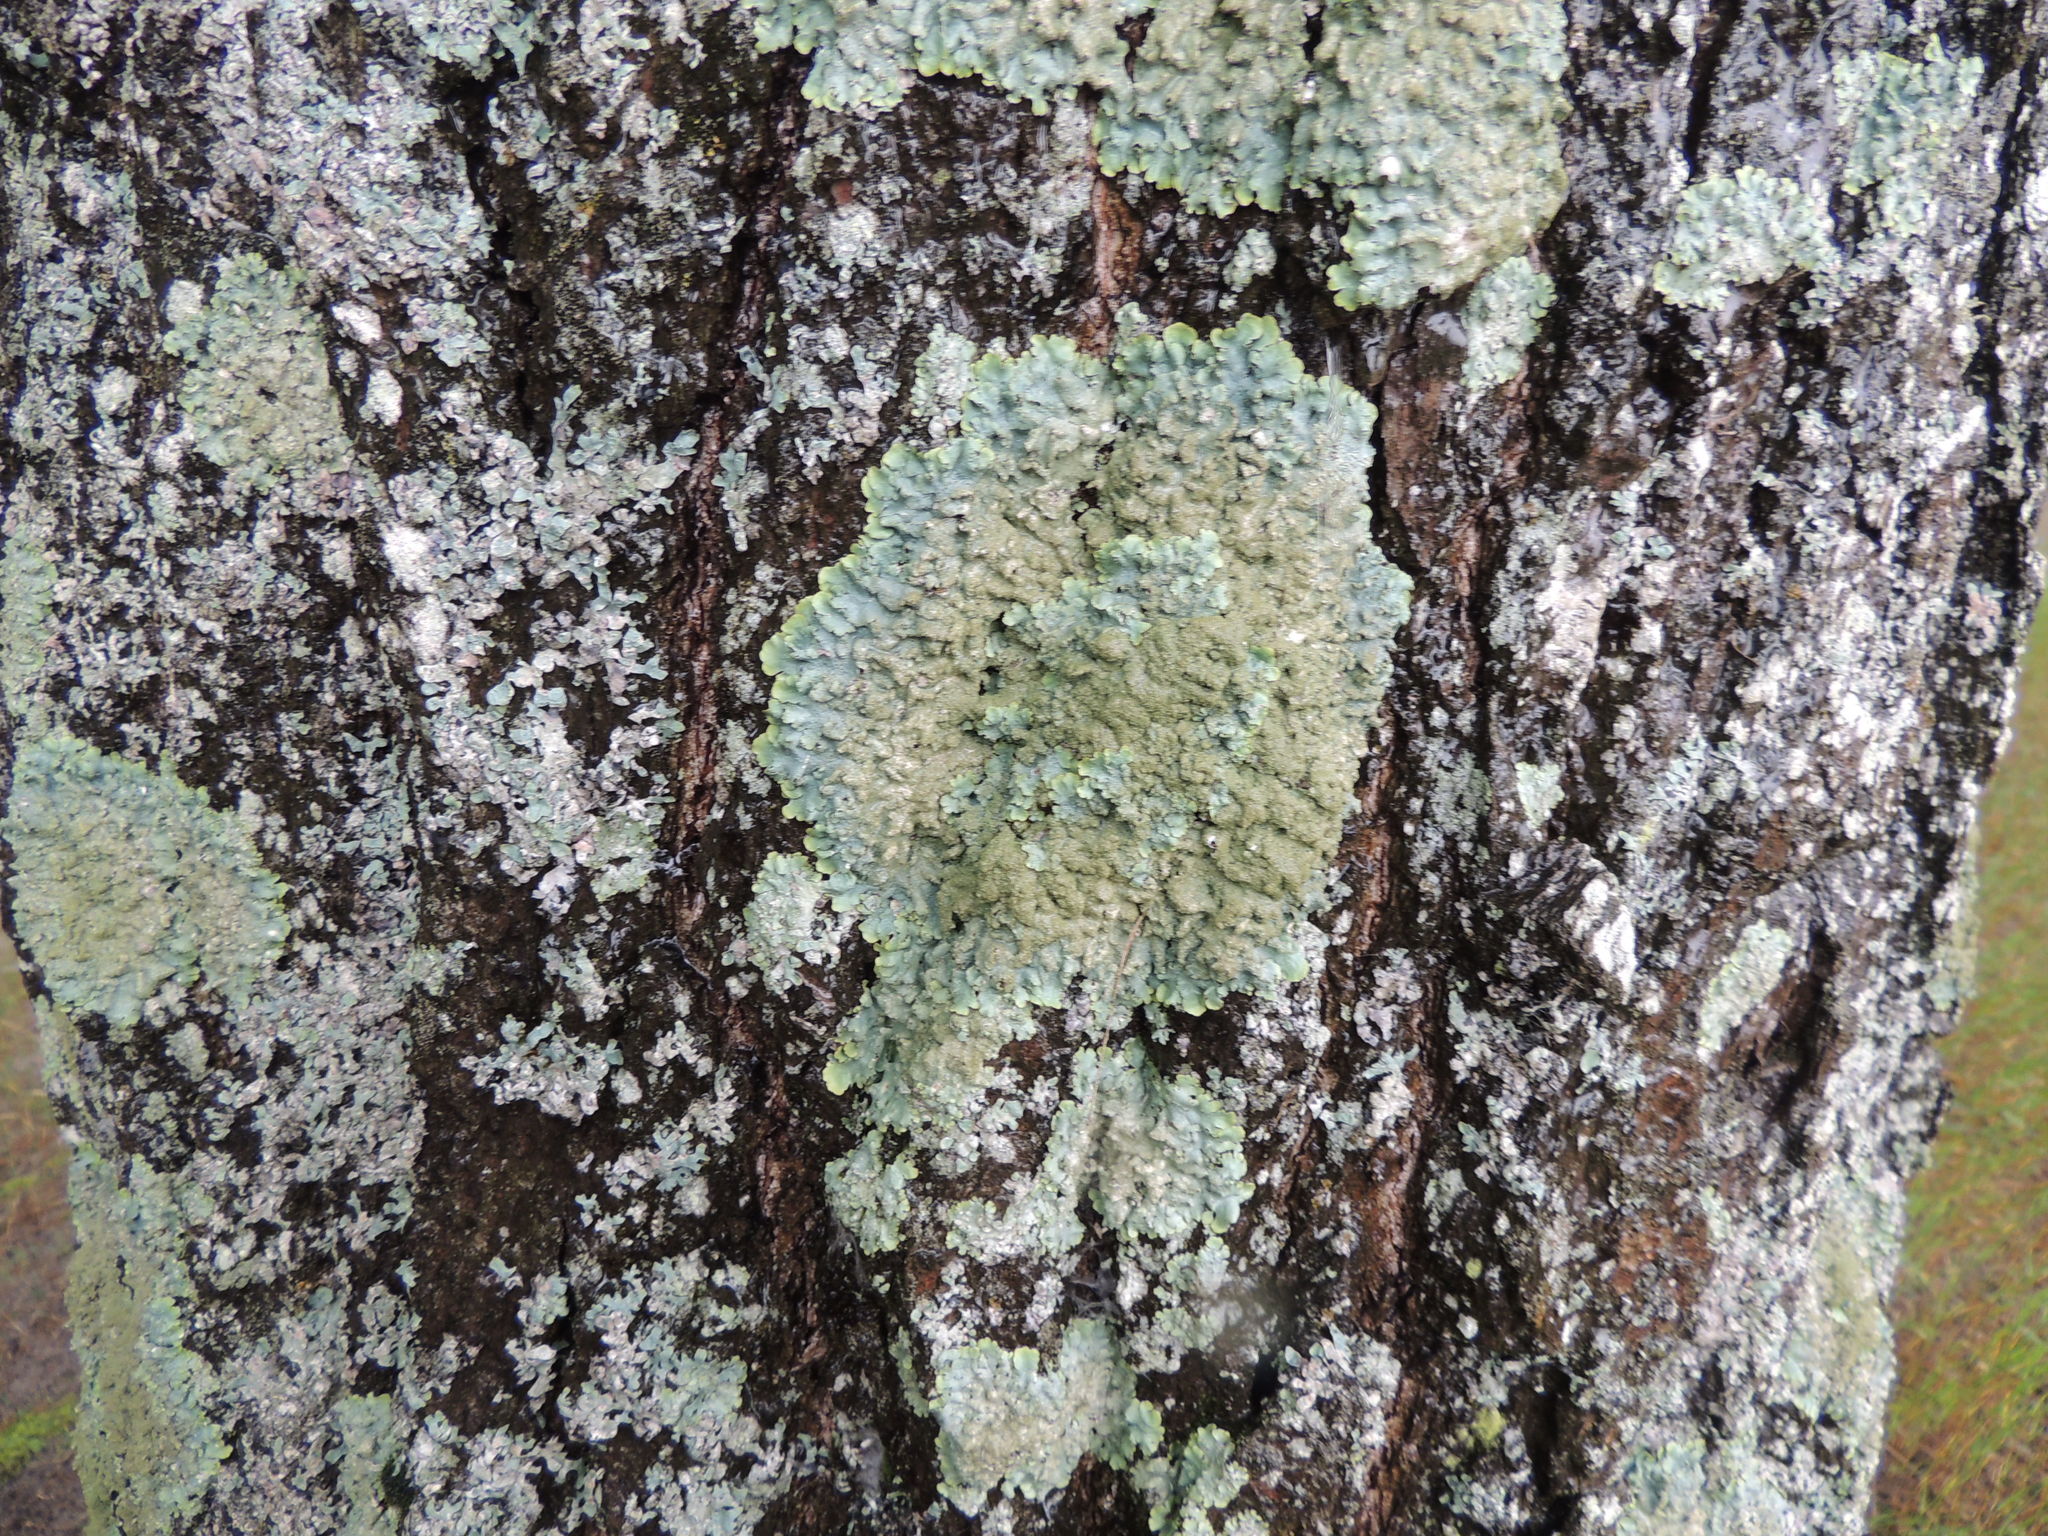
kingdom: Fungi
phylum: Ascomycota
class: Lecanoromycetes
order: Lecanorales
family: Parmeliaceae
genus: Punctelia
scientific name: Punctelia rudecta
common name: Rough speckled shield lichen
